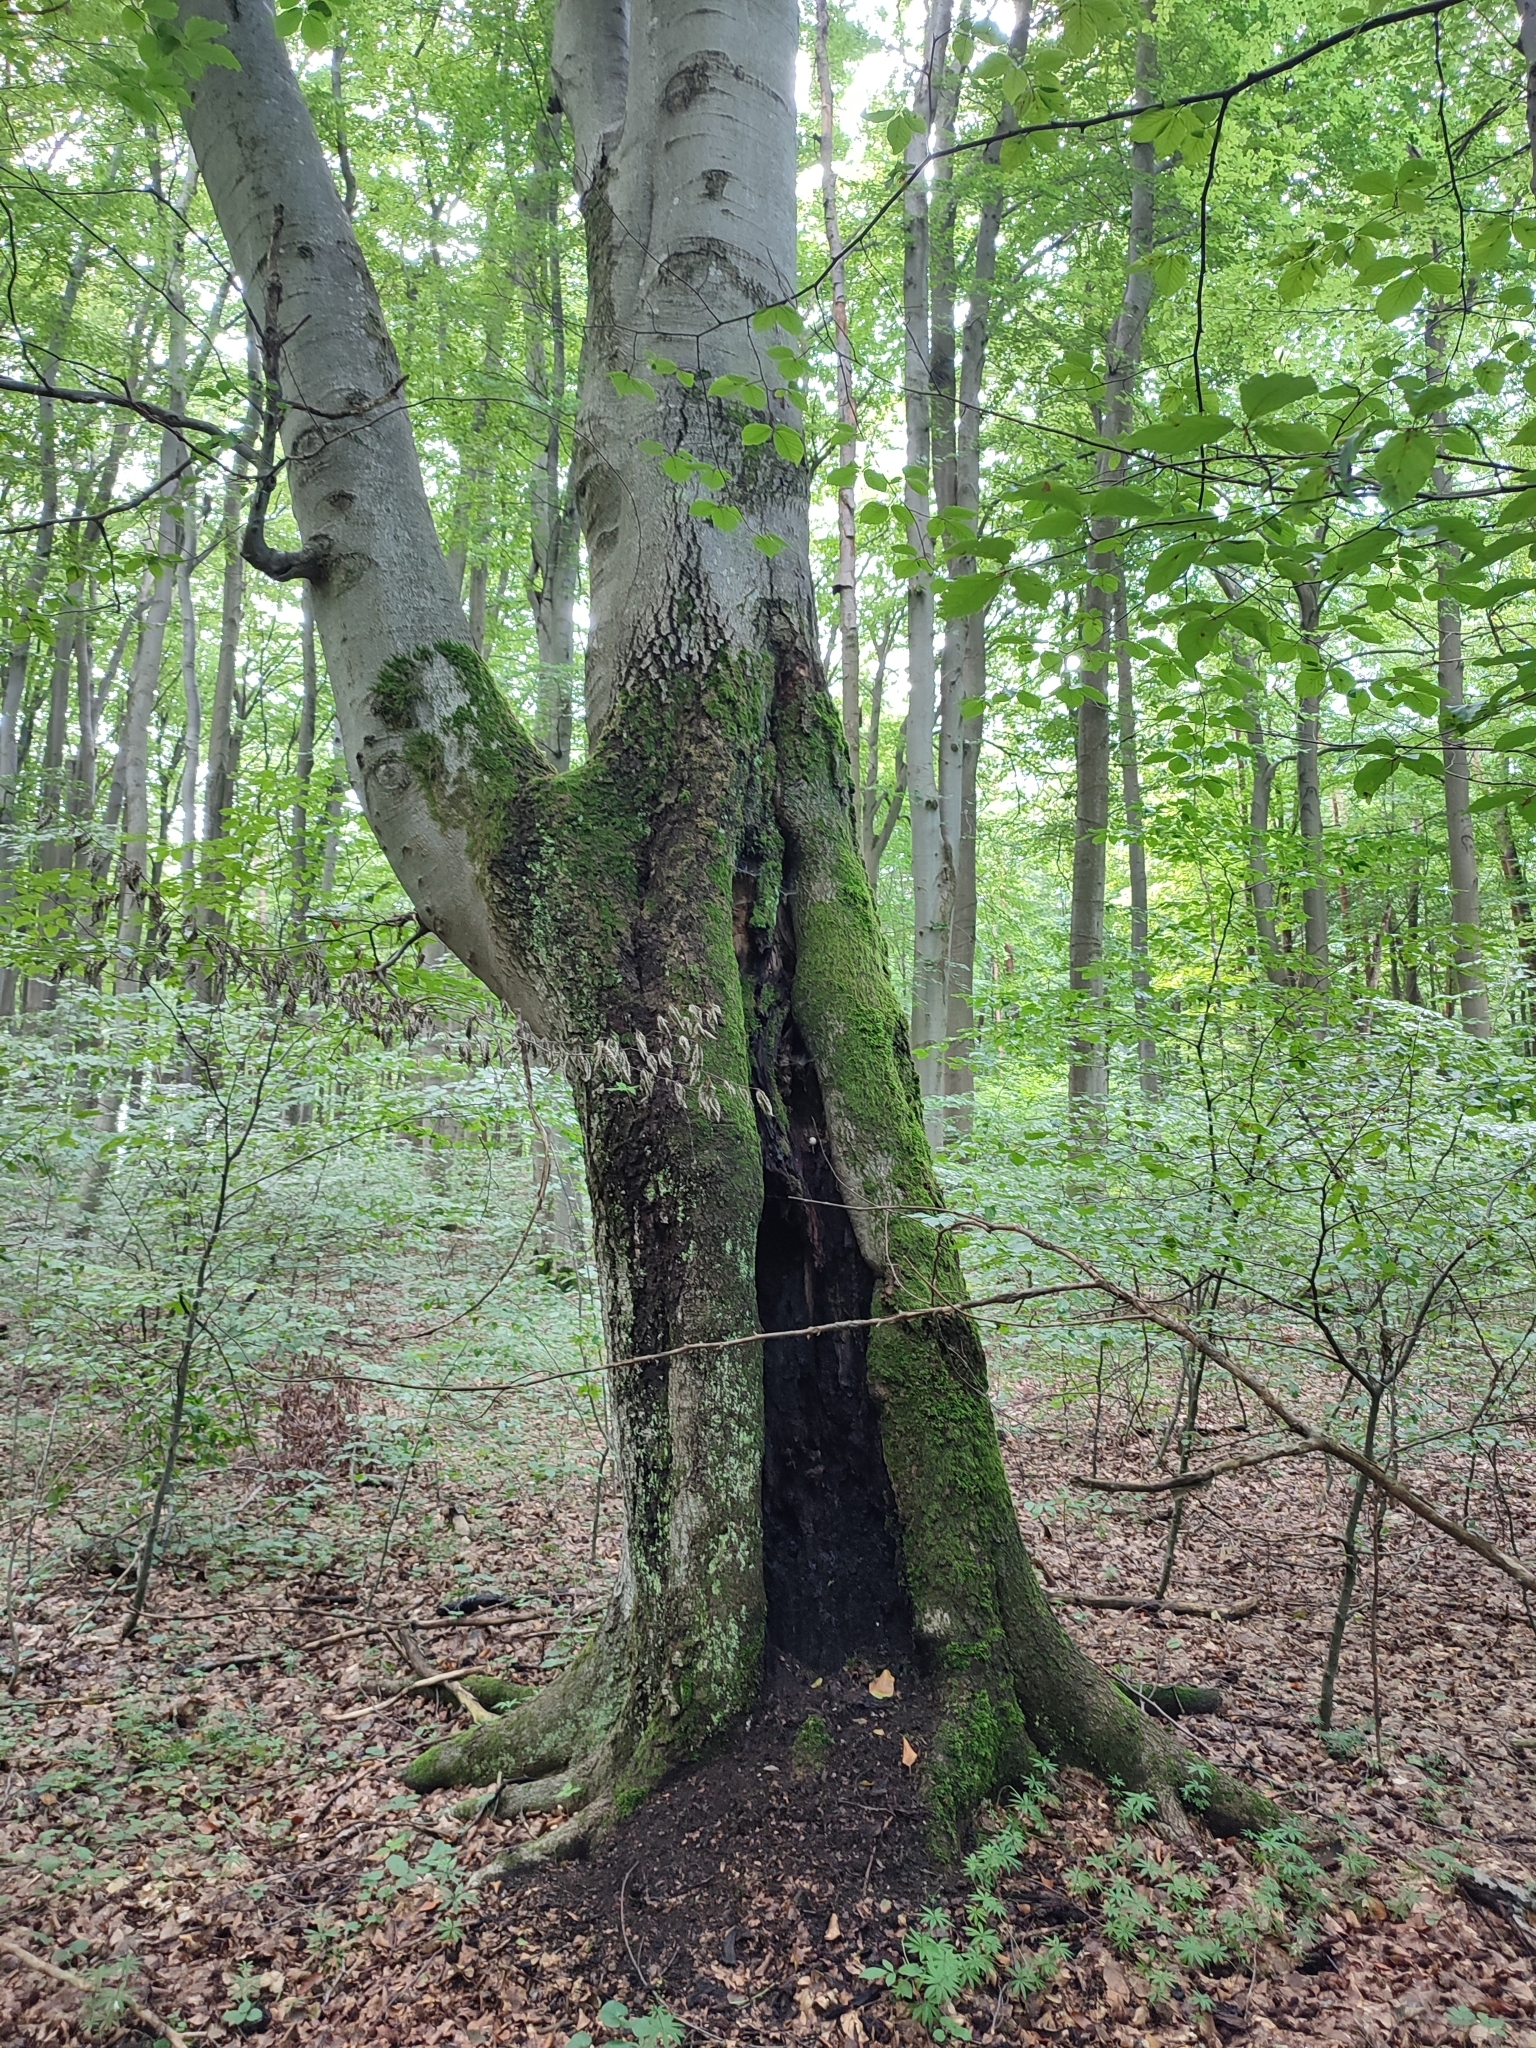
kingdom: Plantae
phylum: Tracheophyta
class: Magnoliopsida
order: Fagales
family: Fagaceae
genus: Fagus
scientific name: Fagus sylvatica
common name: Beech
